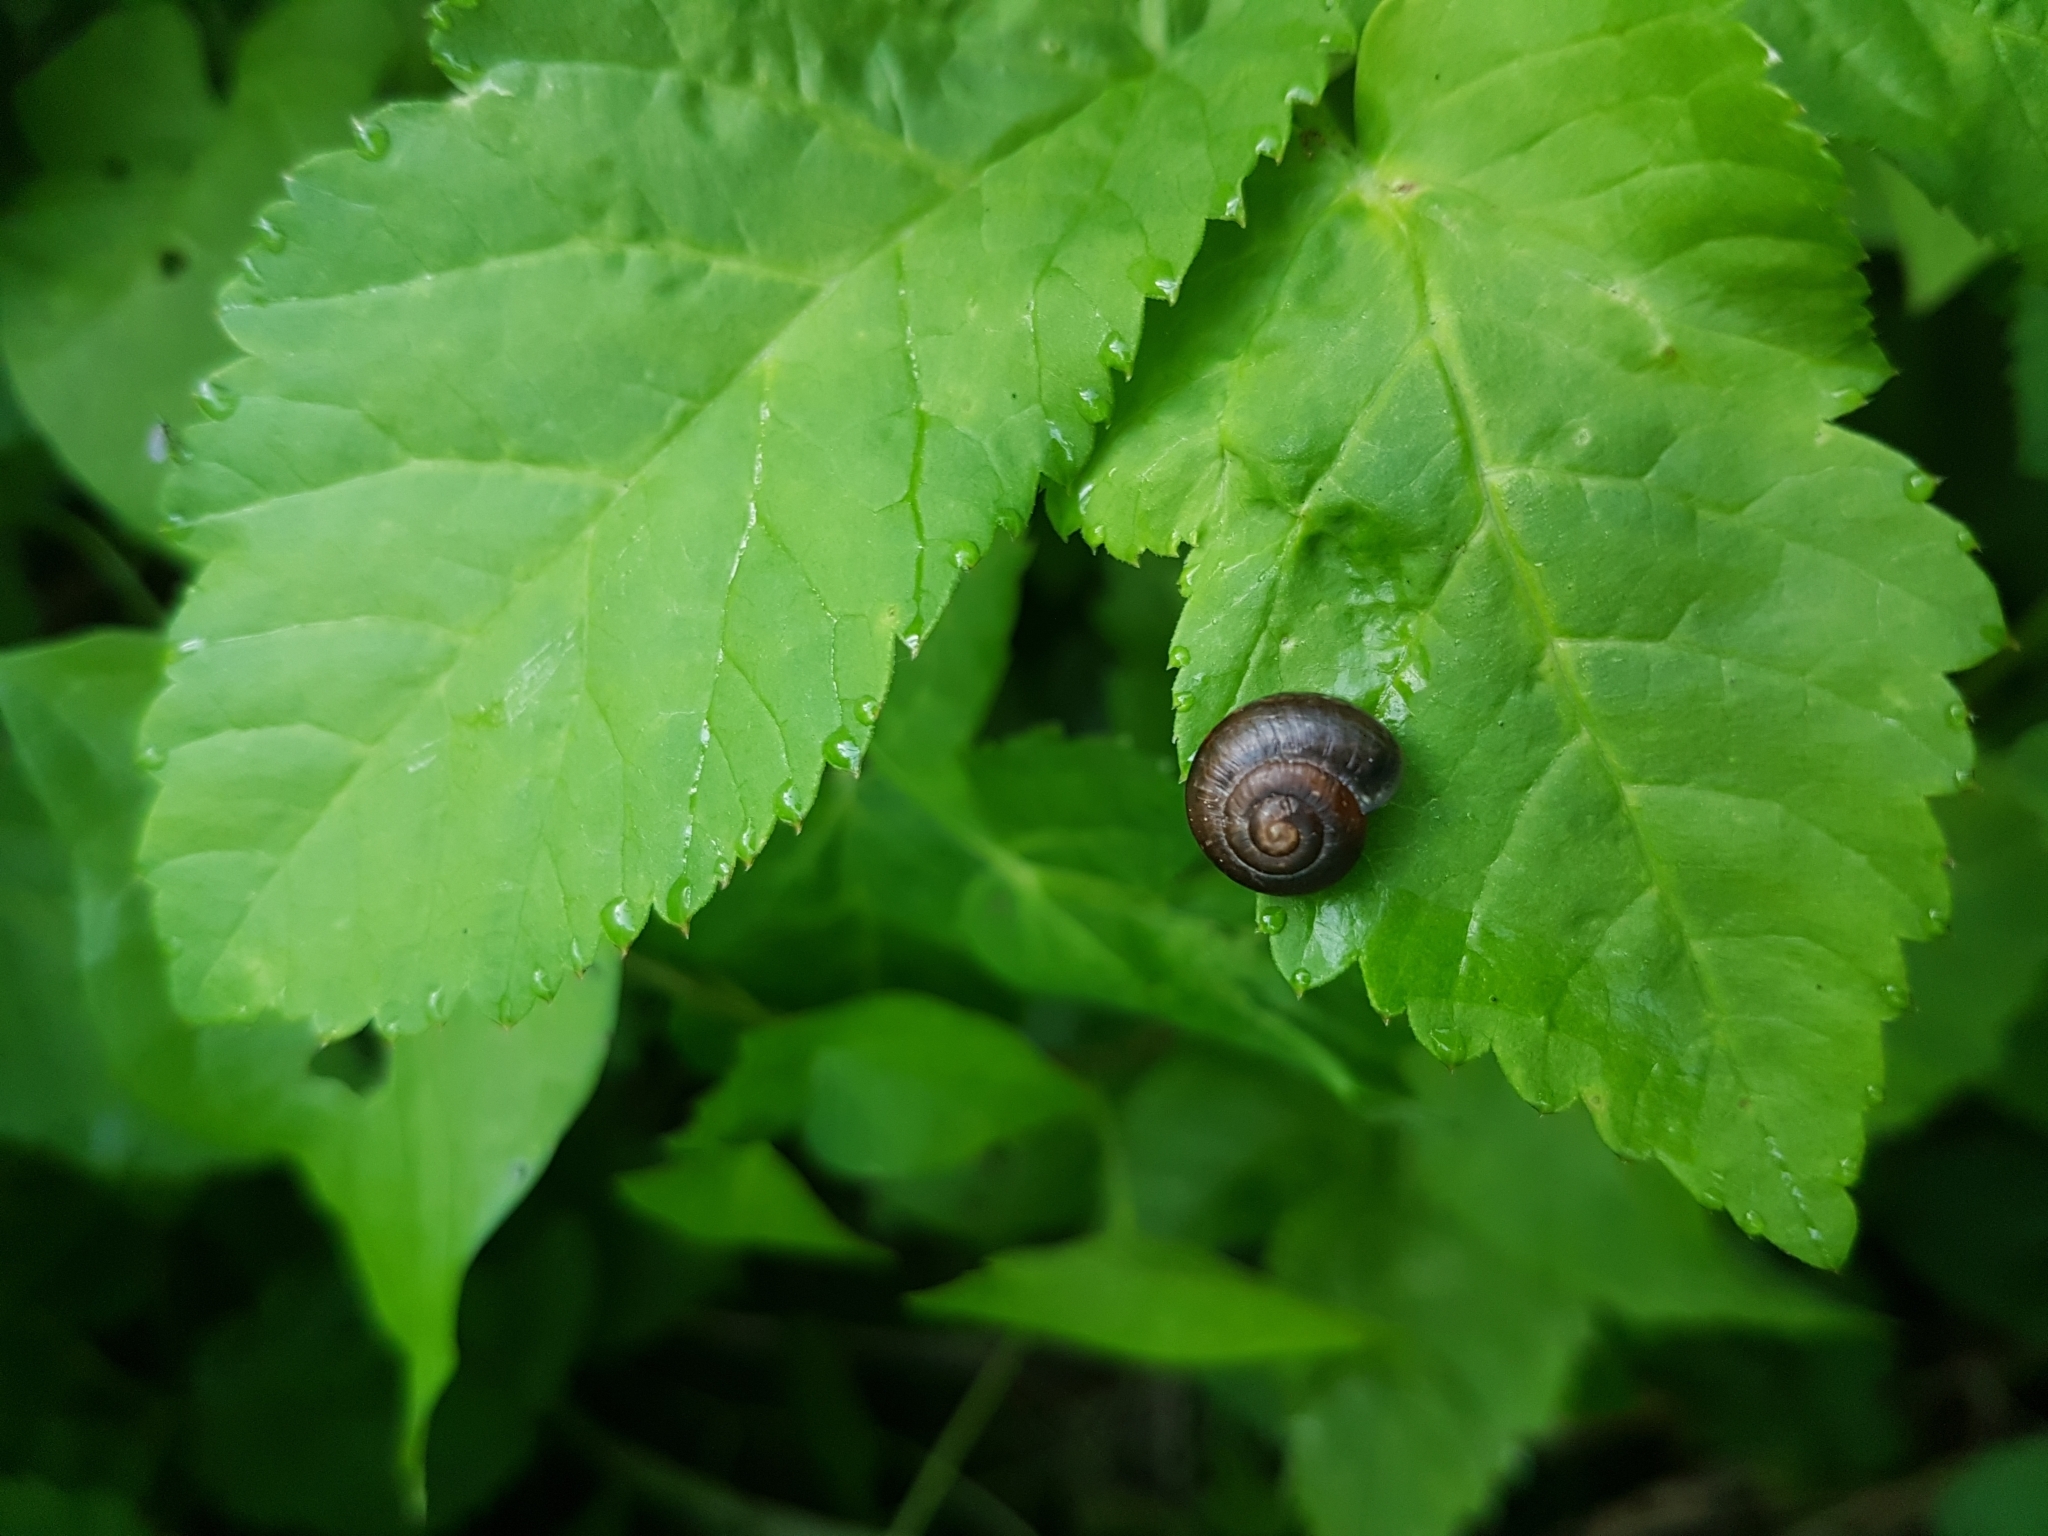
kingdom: Animalia
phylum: Mollusca
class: Gastropoda
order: Stylommatophora
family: Hygromiidae
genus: Trochulus
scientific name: Trochulus striolatus
